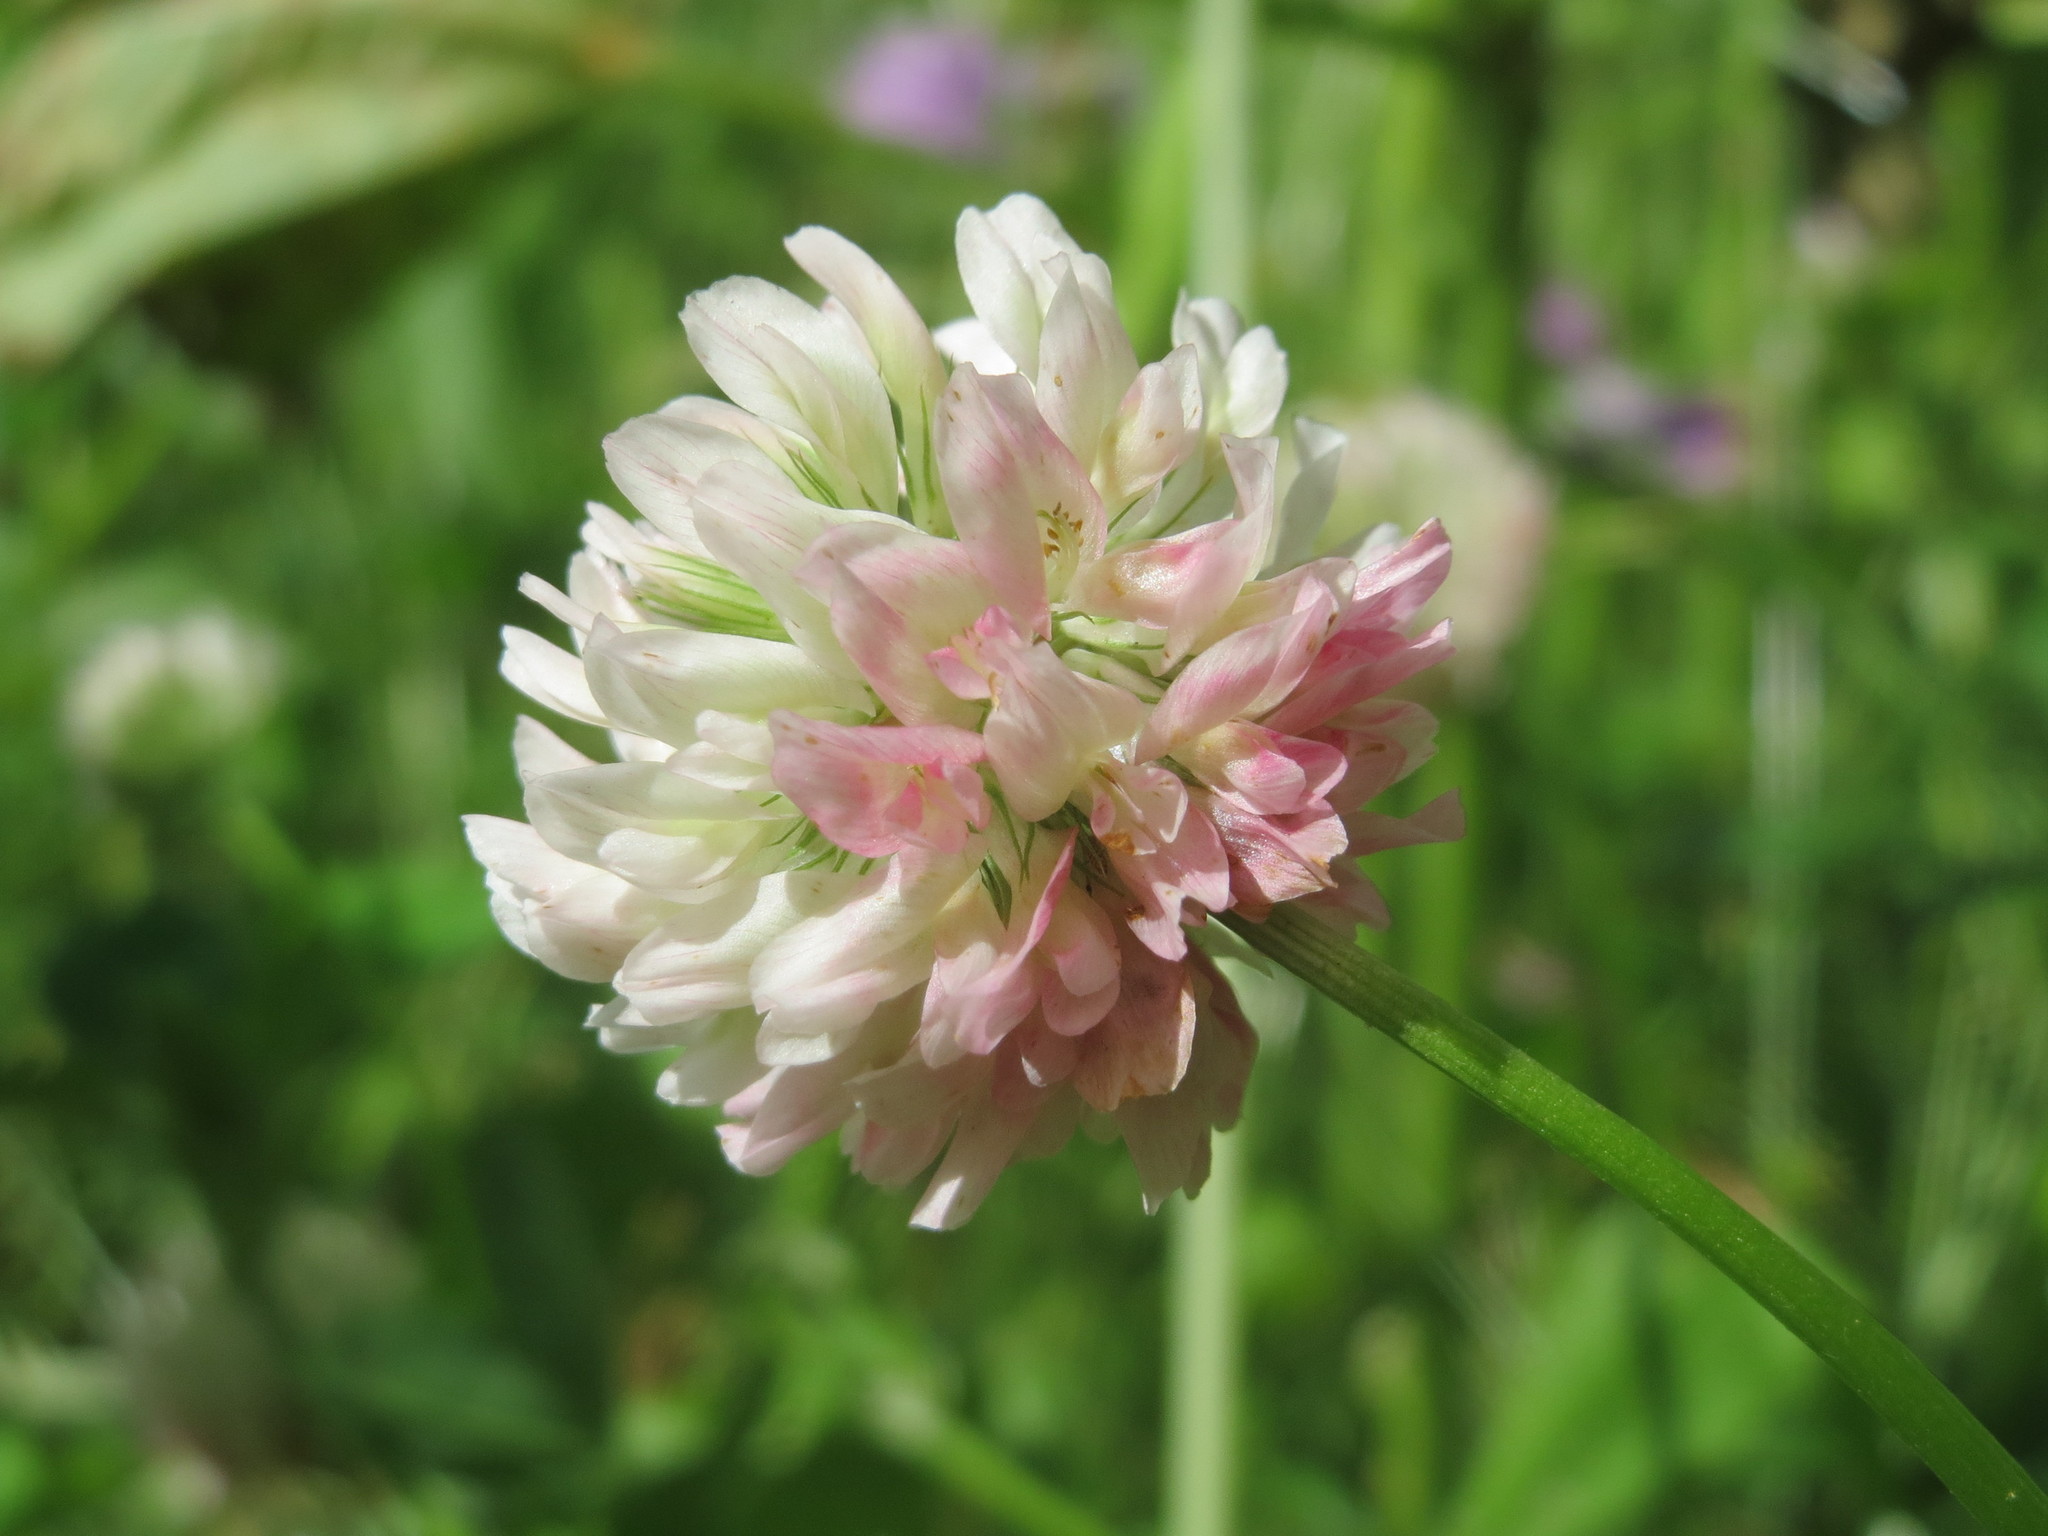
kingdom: Plantae
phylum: Tracheophyta
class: Magnoliopsida
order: Fabales
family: Fabaceae
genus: Trifolium
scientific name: Trifolium hybridum
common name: Alsike clover
